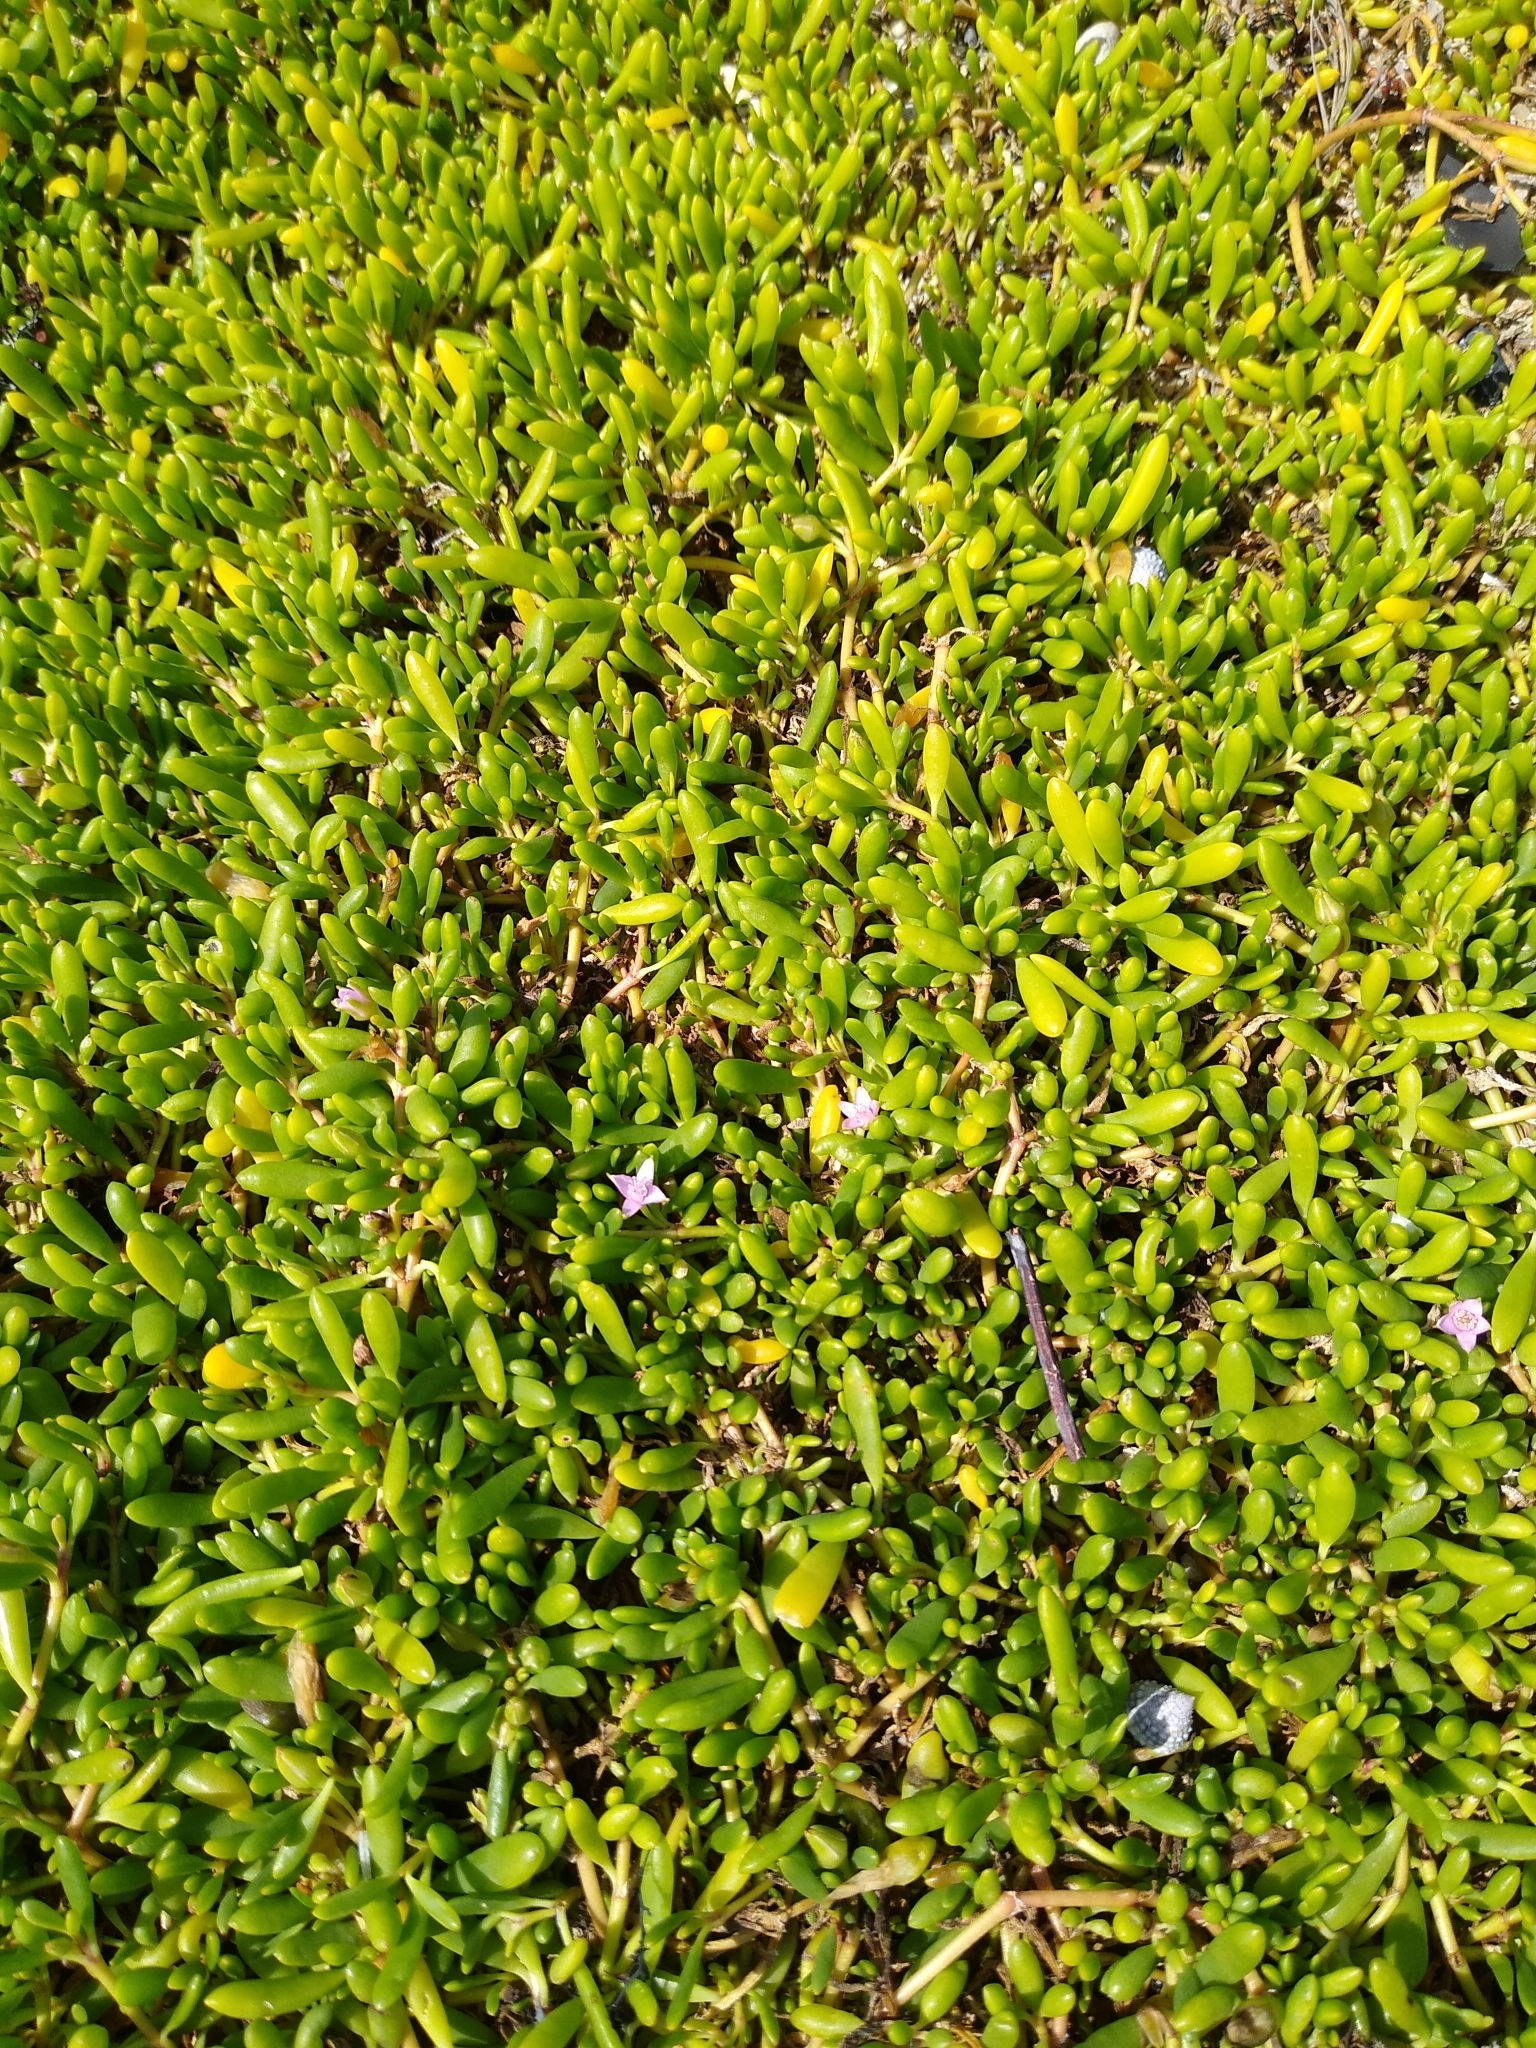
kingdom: Plantae
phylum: Tracheophyta
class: Magnoliopsida
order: Caryophyllales
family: Aizoaceae
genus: Sesuvium
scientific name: Sesuvium portulacastrum
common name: Sea-purslane
